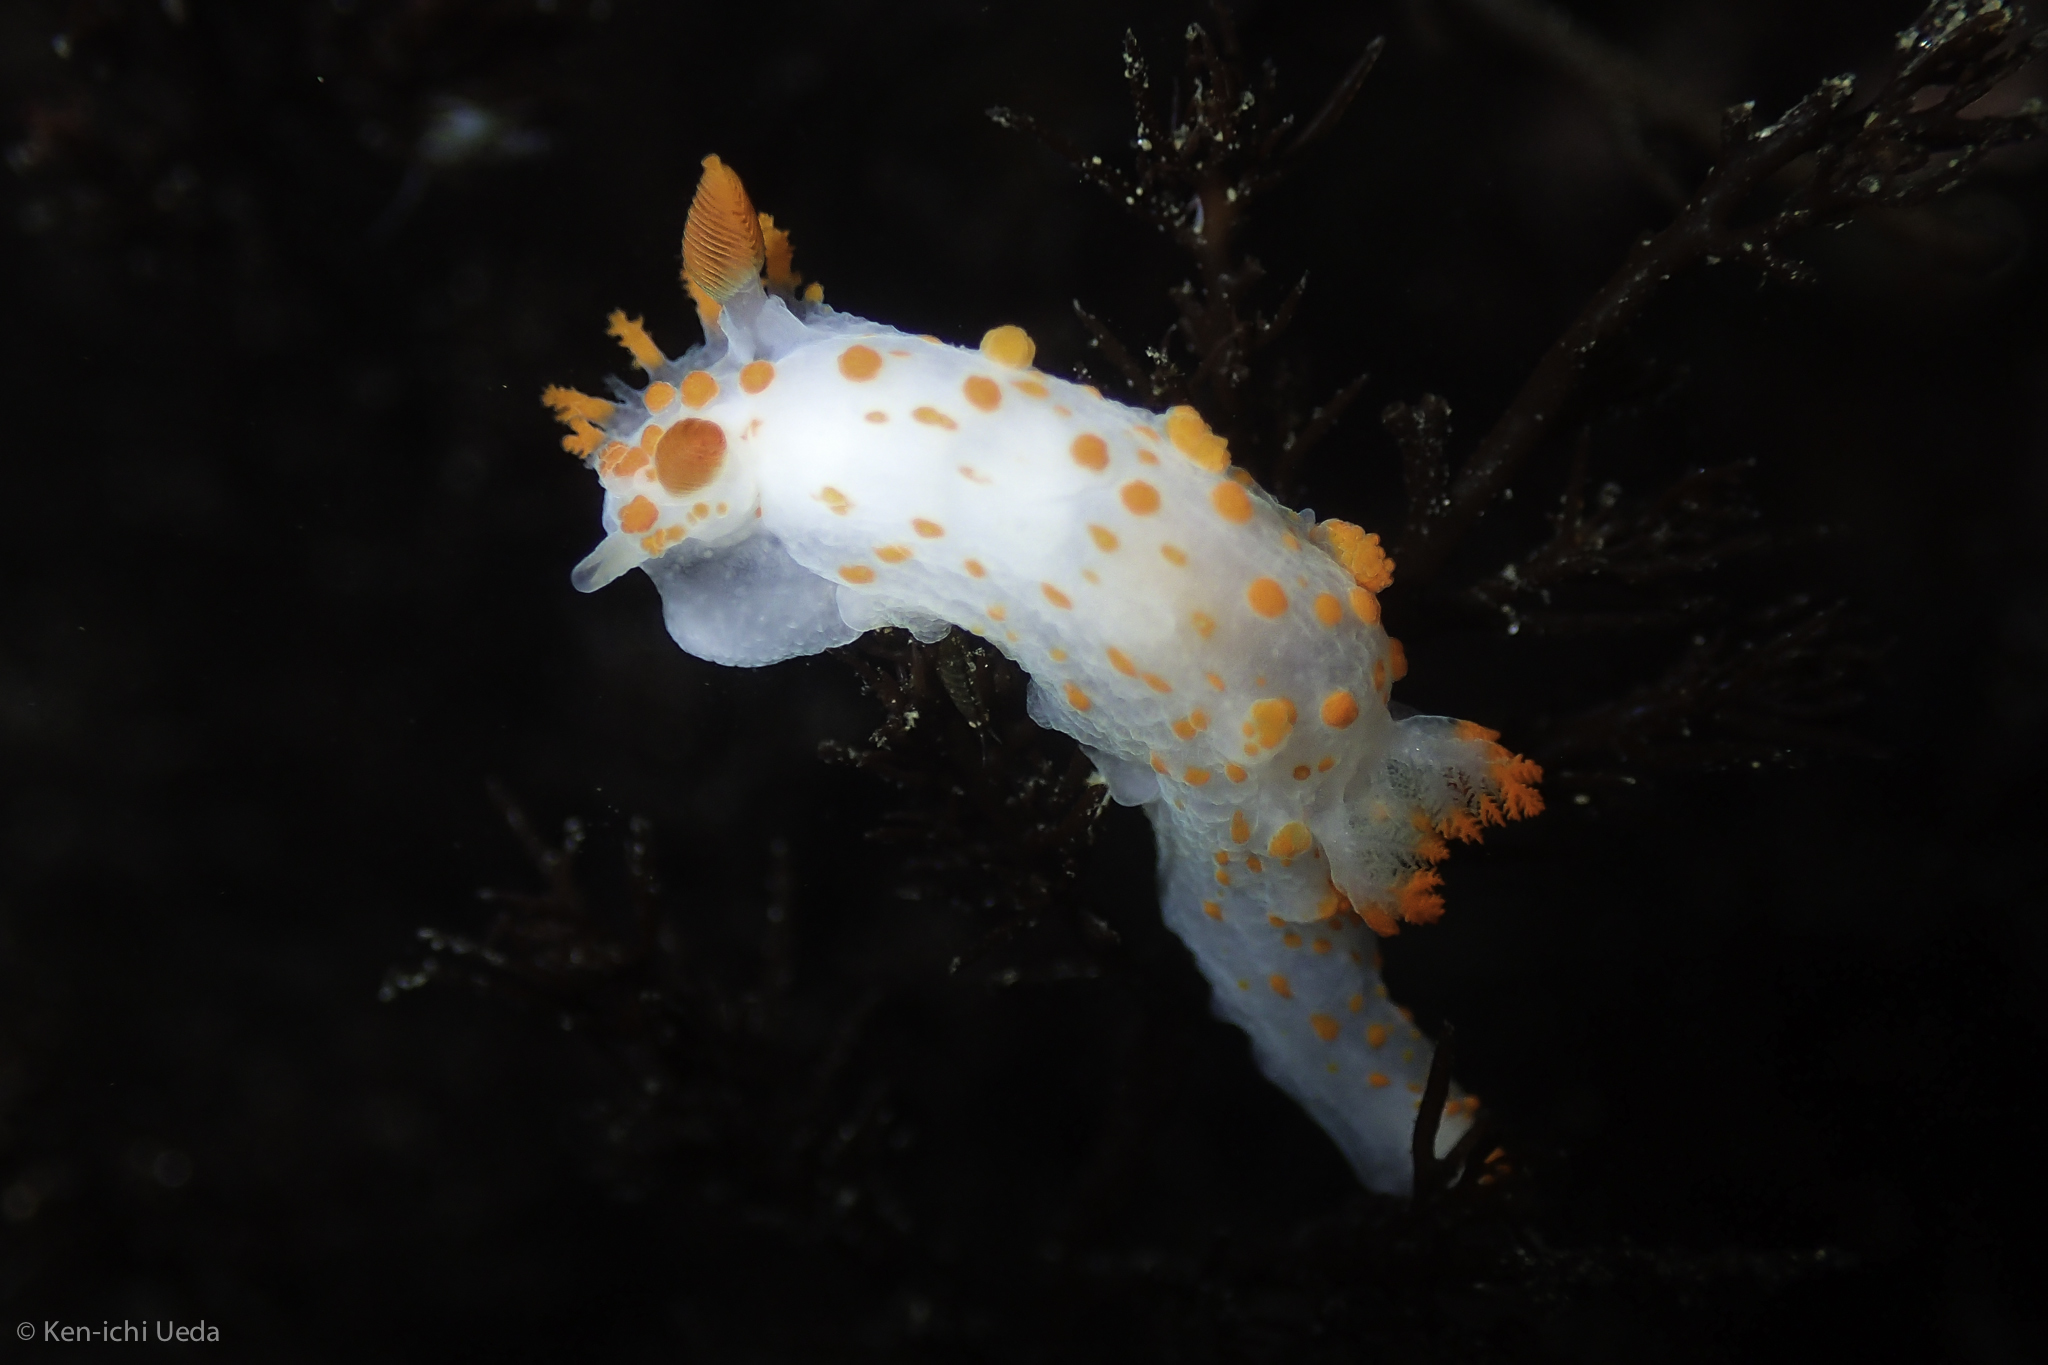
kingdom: Animalia
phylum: Mollusca
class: Gastropoda
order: Nudibranchia
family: Polyceridae
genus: Triopha
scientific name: Triopha catalinae
